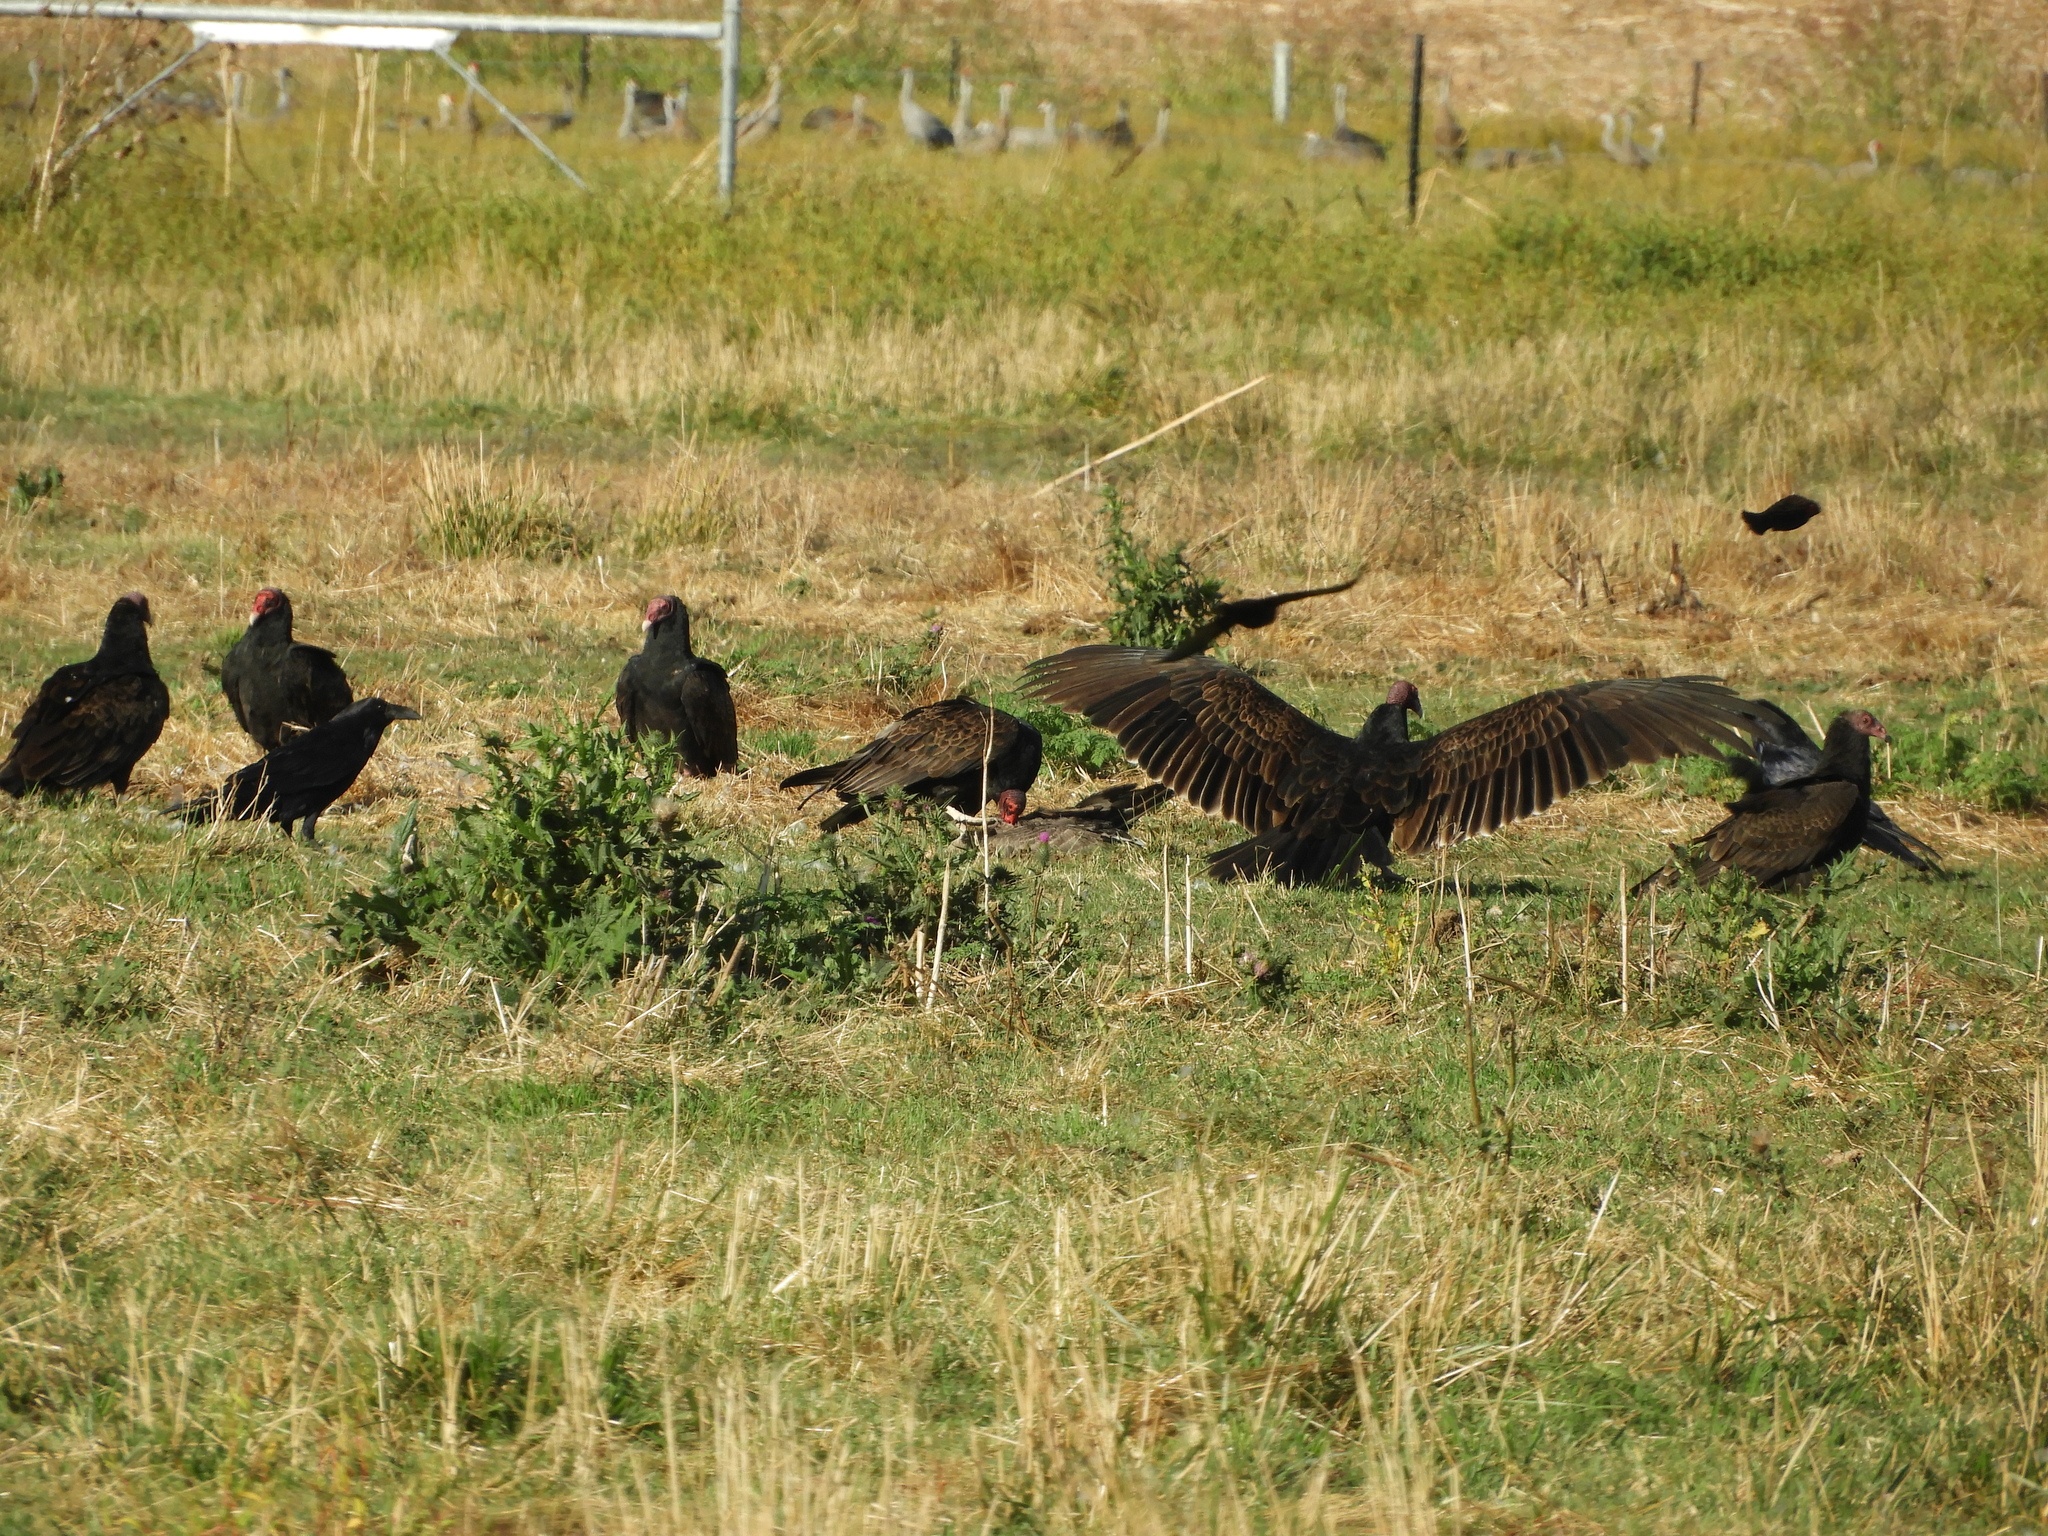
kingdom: Animalia
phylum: Chordata
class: Aves
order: Accipitriformes
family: Cathartidae
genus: Cathartes
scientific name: Cathartes aura
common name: Turkey vulture
